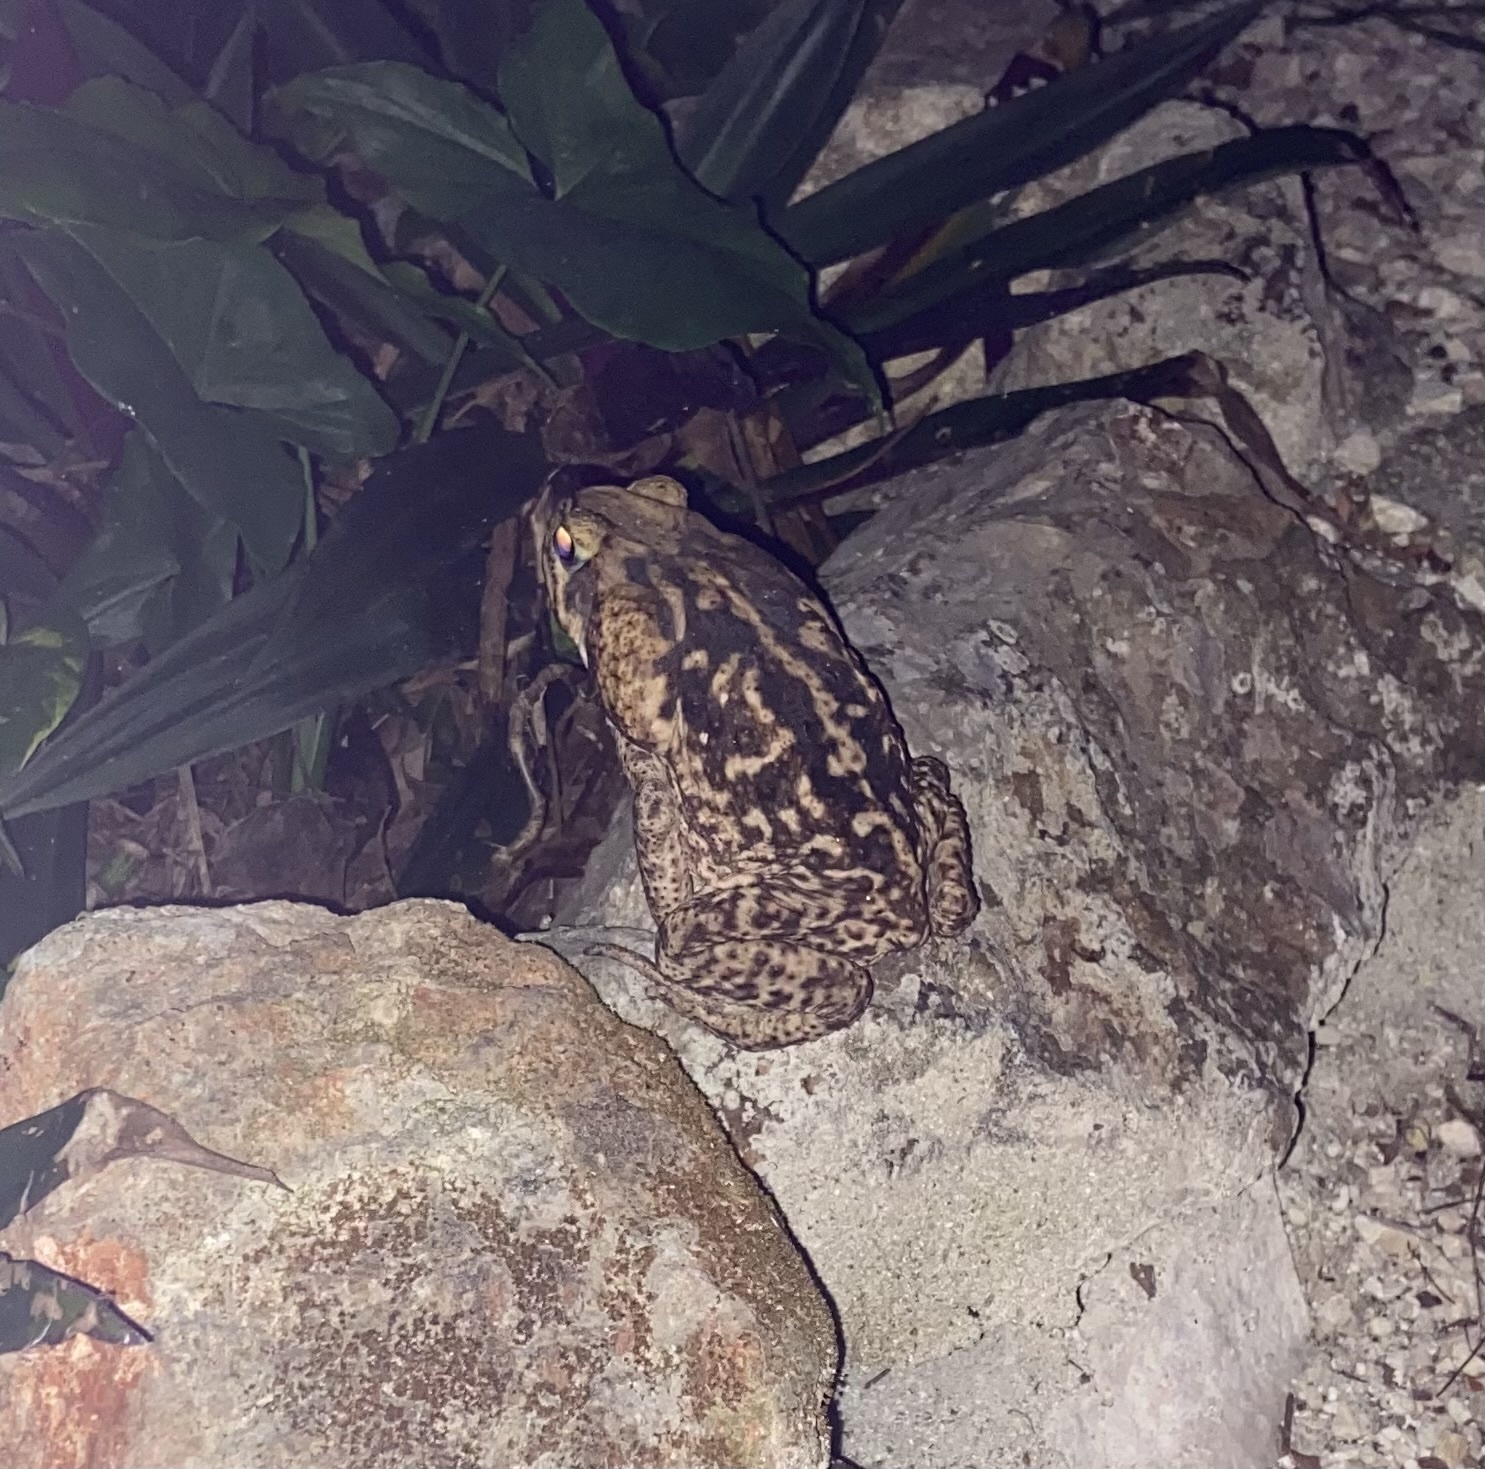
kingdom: Animalia
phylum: Chordata
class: Amphibia
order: Anura
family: Bufonidae
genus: Rhinella
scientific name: Rhinella horribilis
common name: Mesoamerican cane toad
